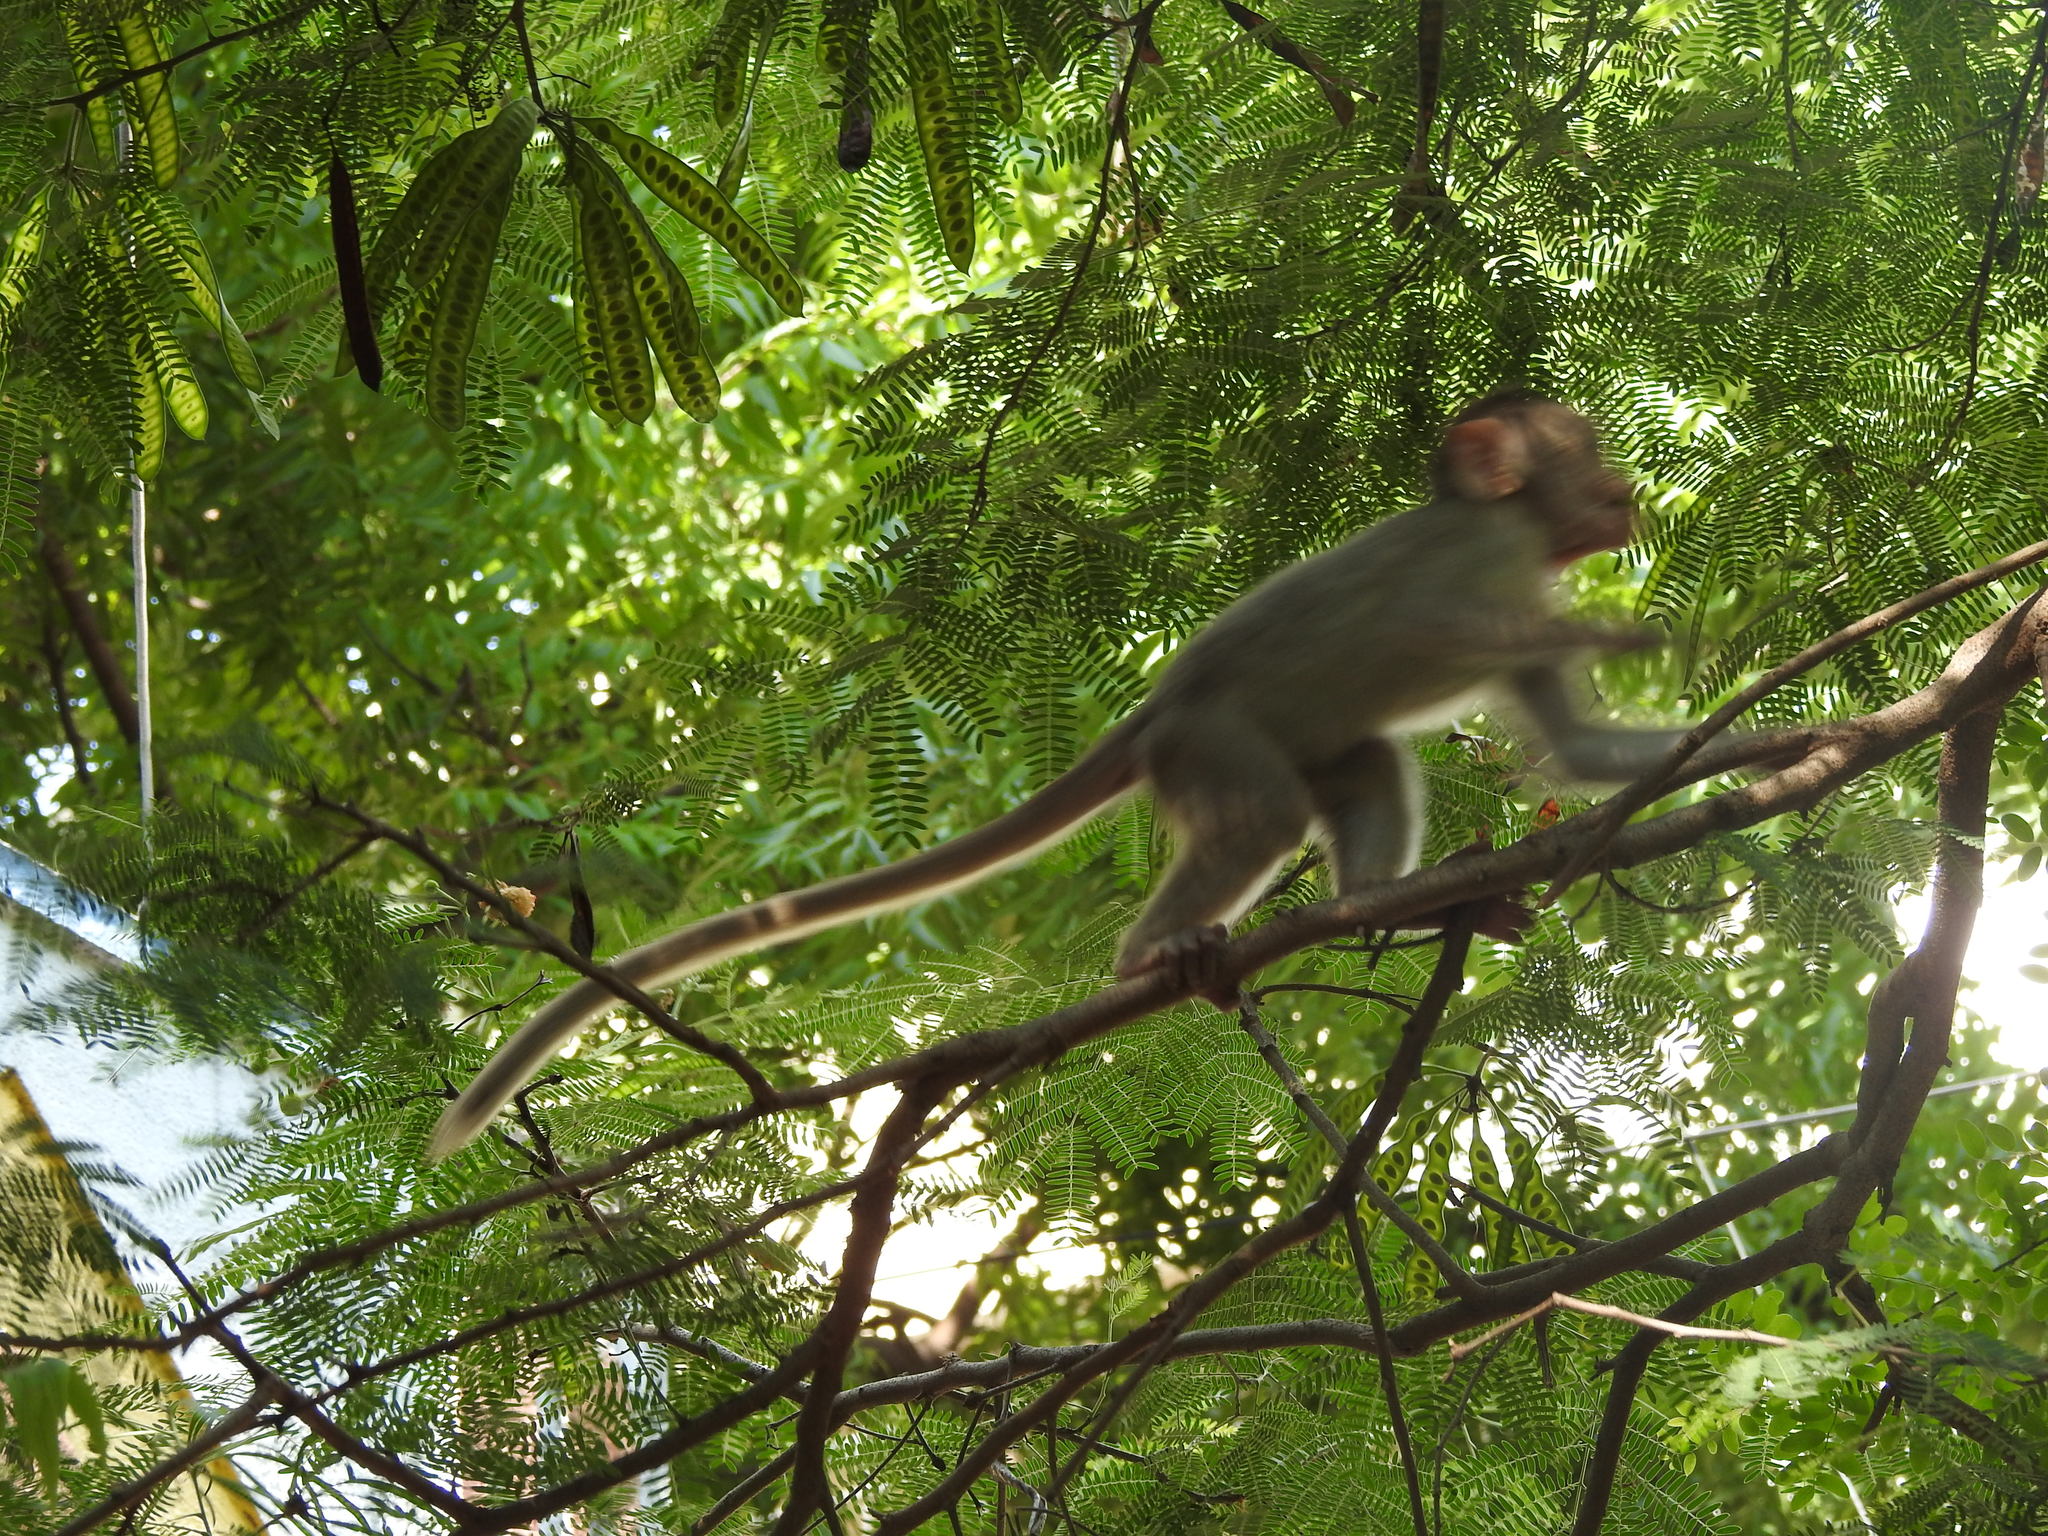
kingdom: Animalia
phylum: Chordata
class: Mammalia
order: Primates
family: Cercopithecidae
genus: Macaca
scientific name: Macaca radiata
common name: Bonnet macaque
